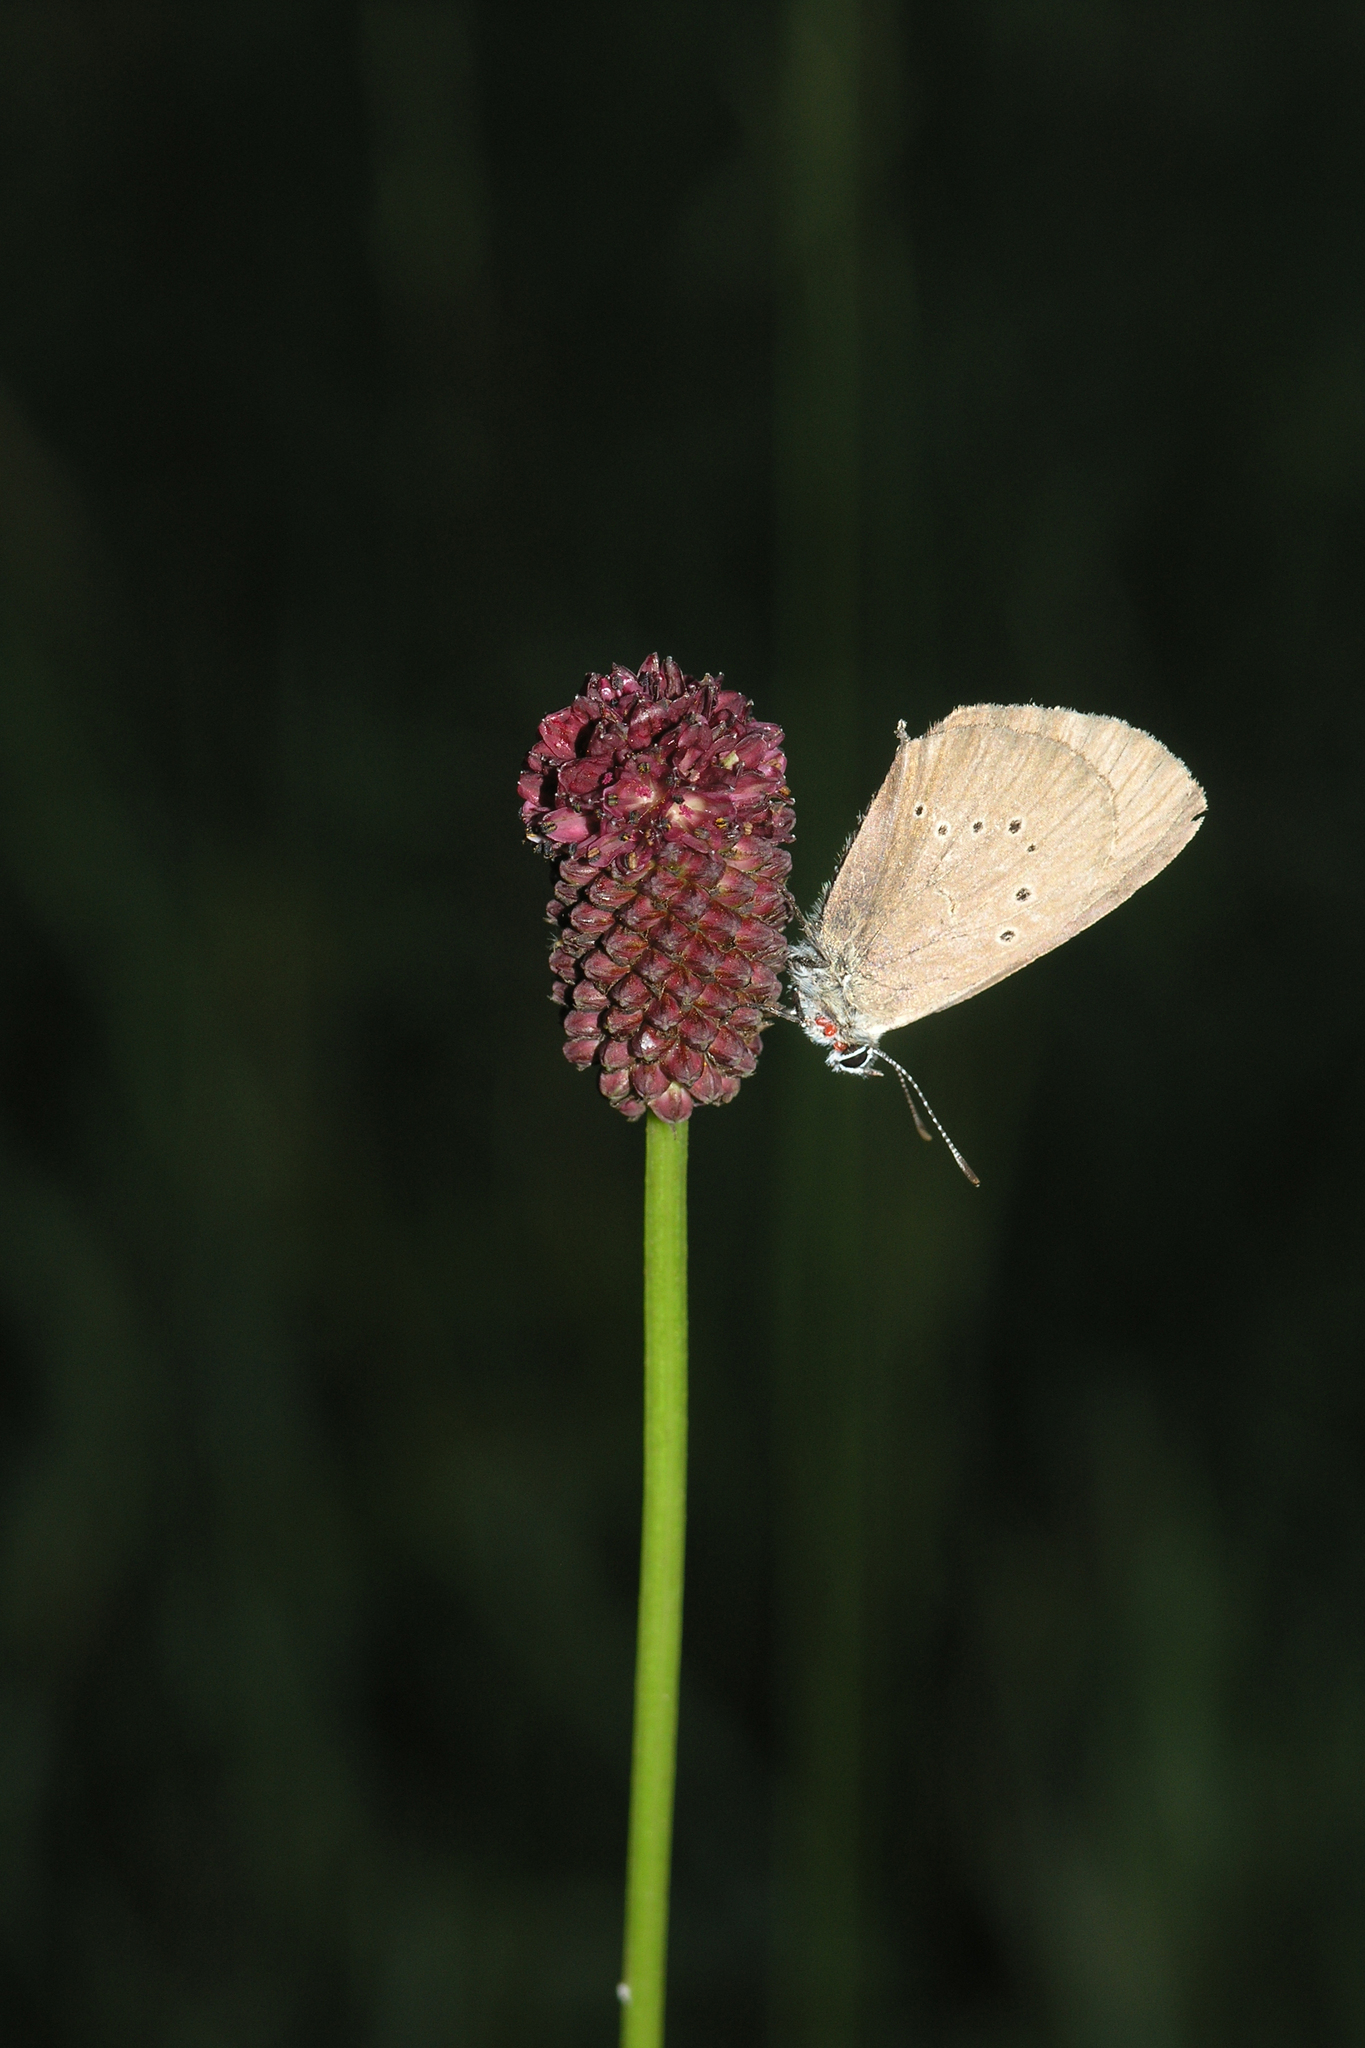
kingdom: Plantae
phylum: Tracheophyta
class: Magnoliopsida
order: Rosales
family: Rosaceae
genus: Sanguisorba
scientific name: Sanguisorba officinalis
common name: Great burnet
